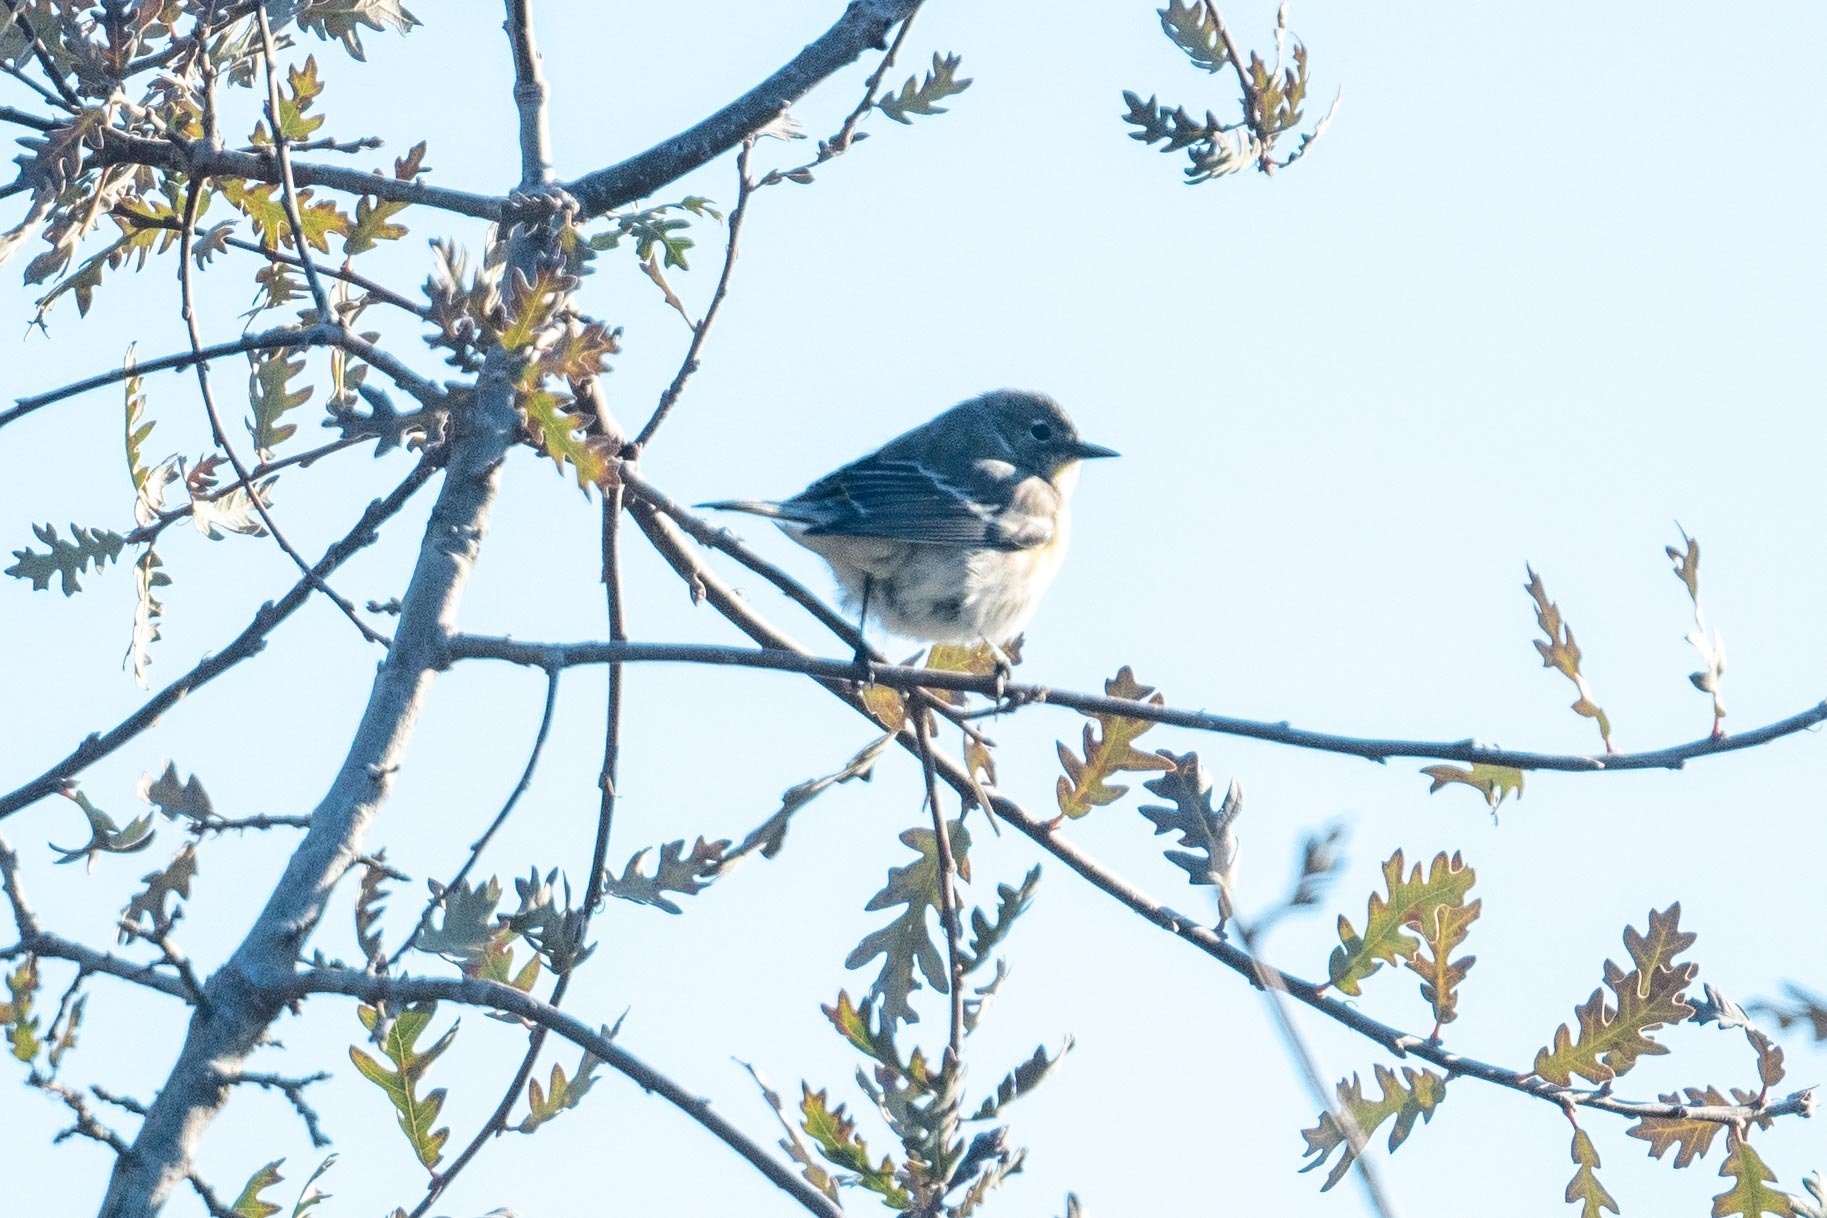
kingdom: Animalia
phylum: Chordata
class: Aves
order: Passeriformes
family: Parulidae
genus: Setophaga
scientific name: Setophaga coronata
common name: Myrtle warbler
